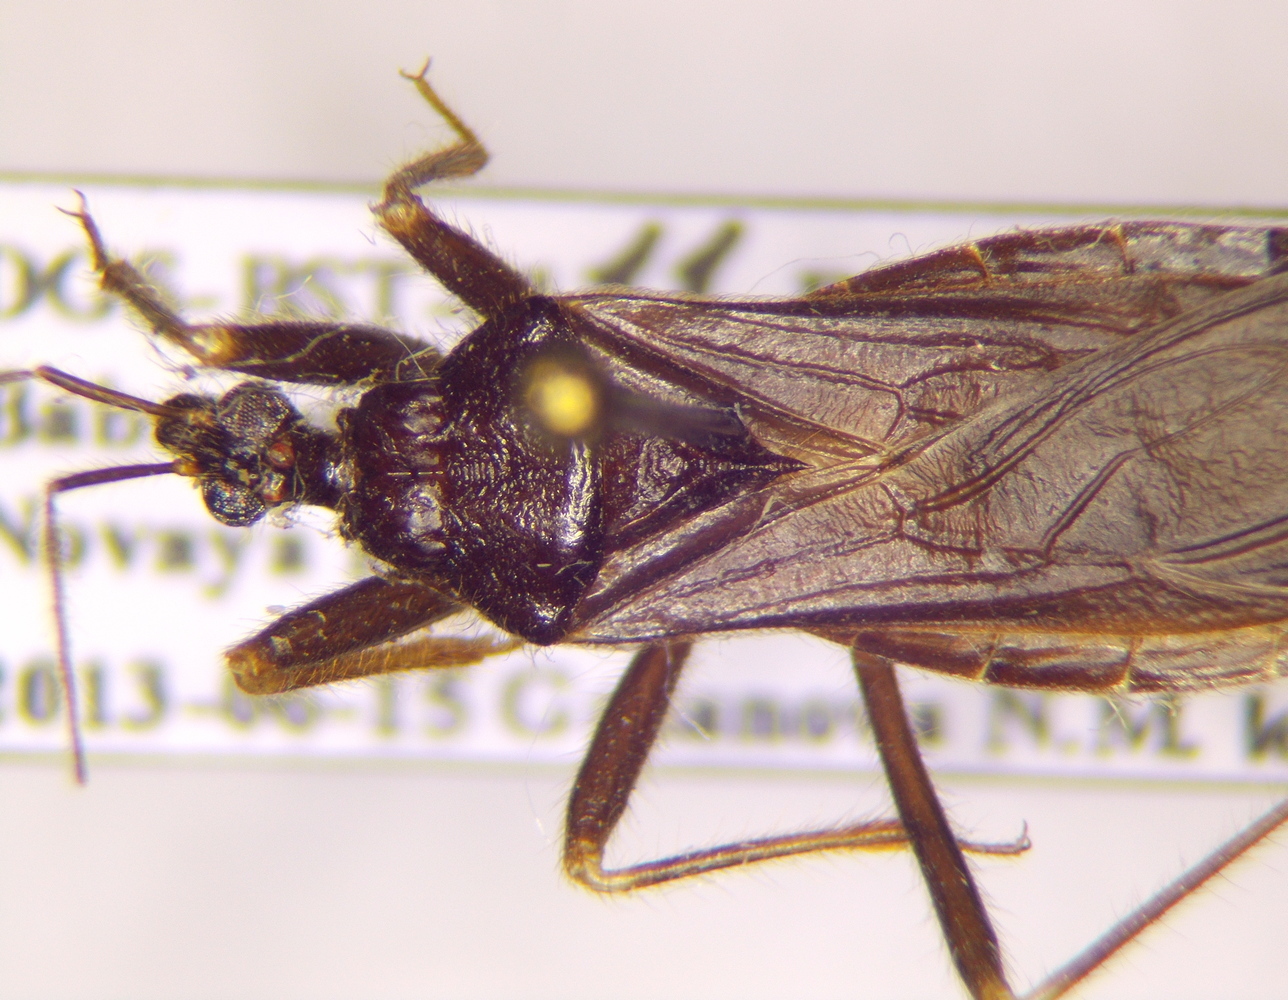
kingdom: Animalia
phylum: Arthropoda
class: Insecta
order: Hemiptera
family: Reduviidae
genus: Reduvius
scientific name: Reduvius personatus
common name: Masked hunter
